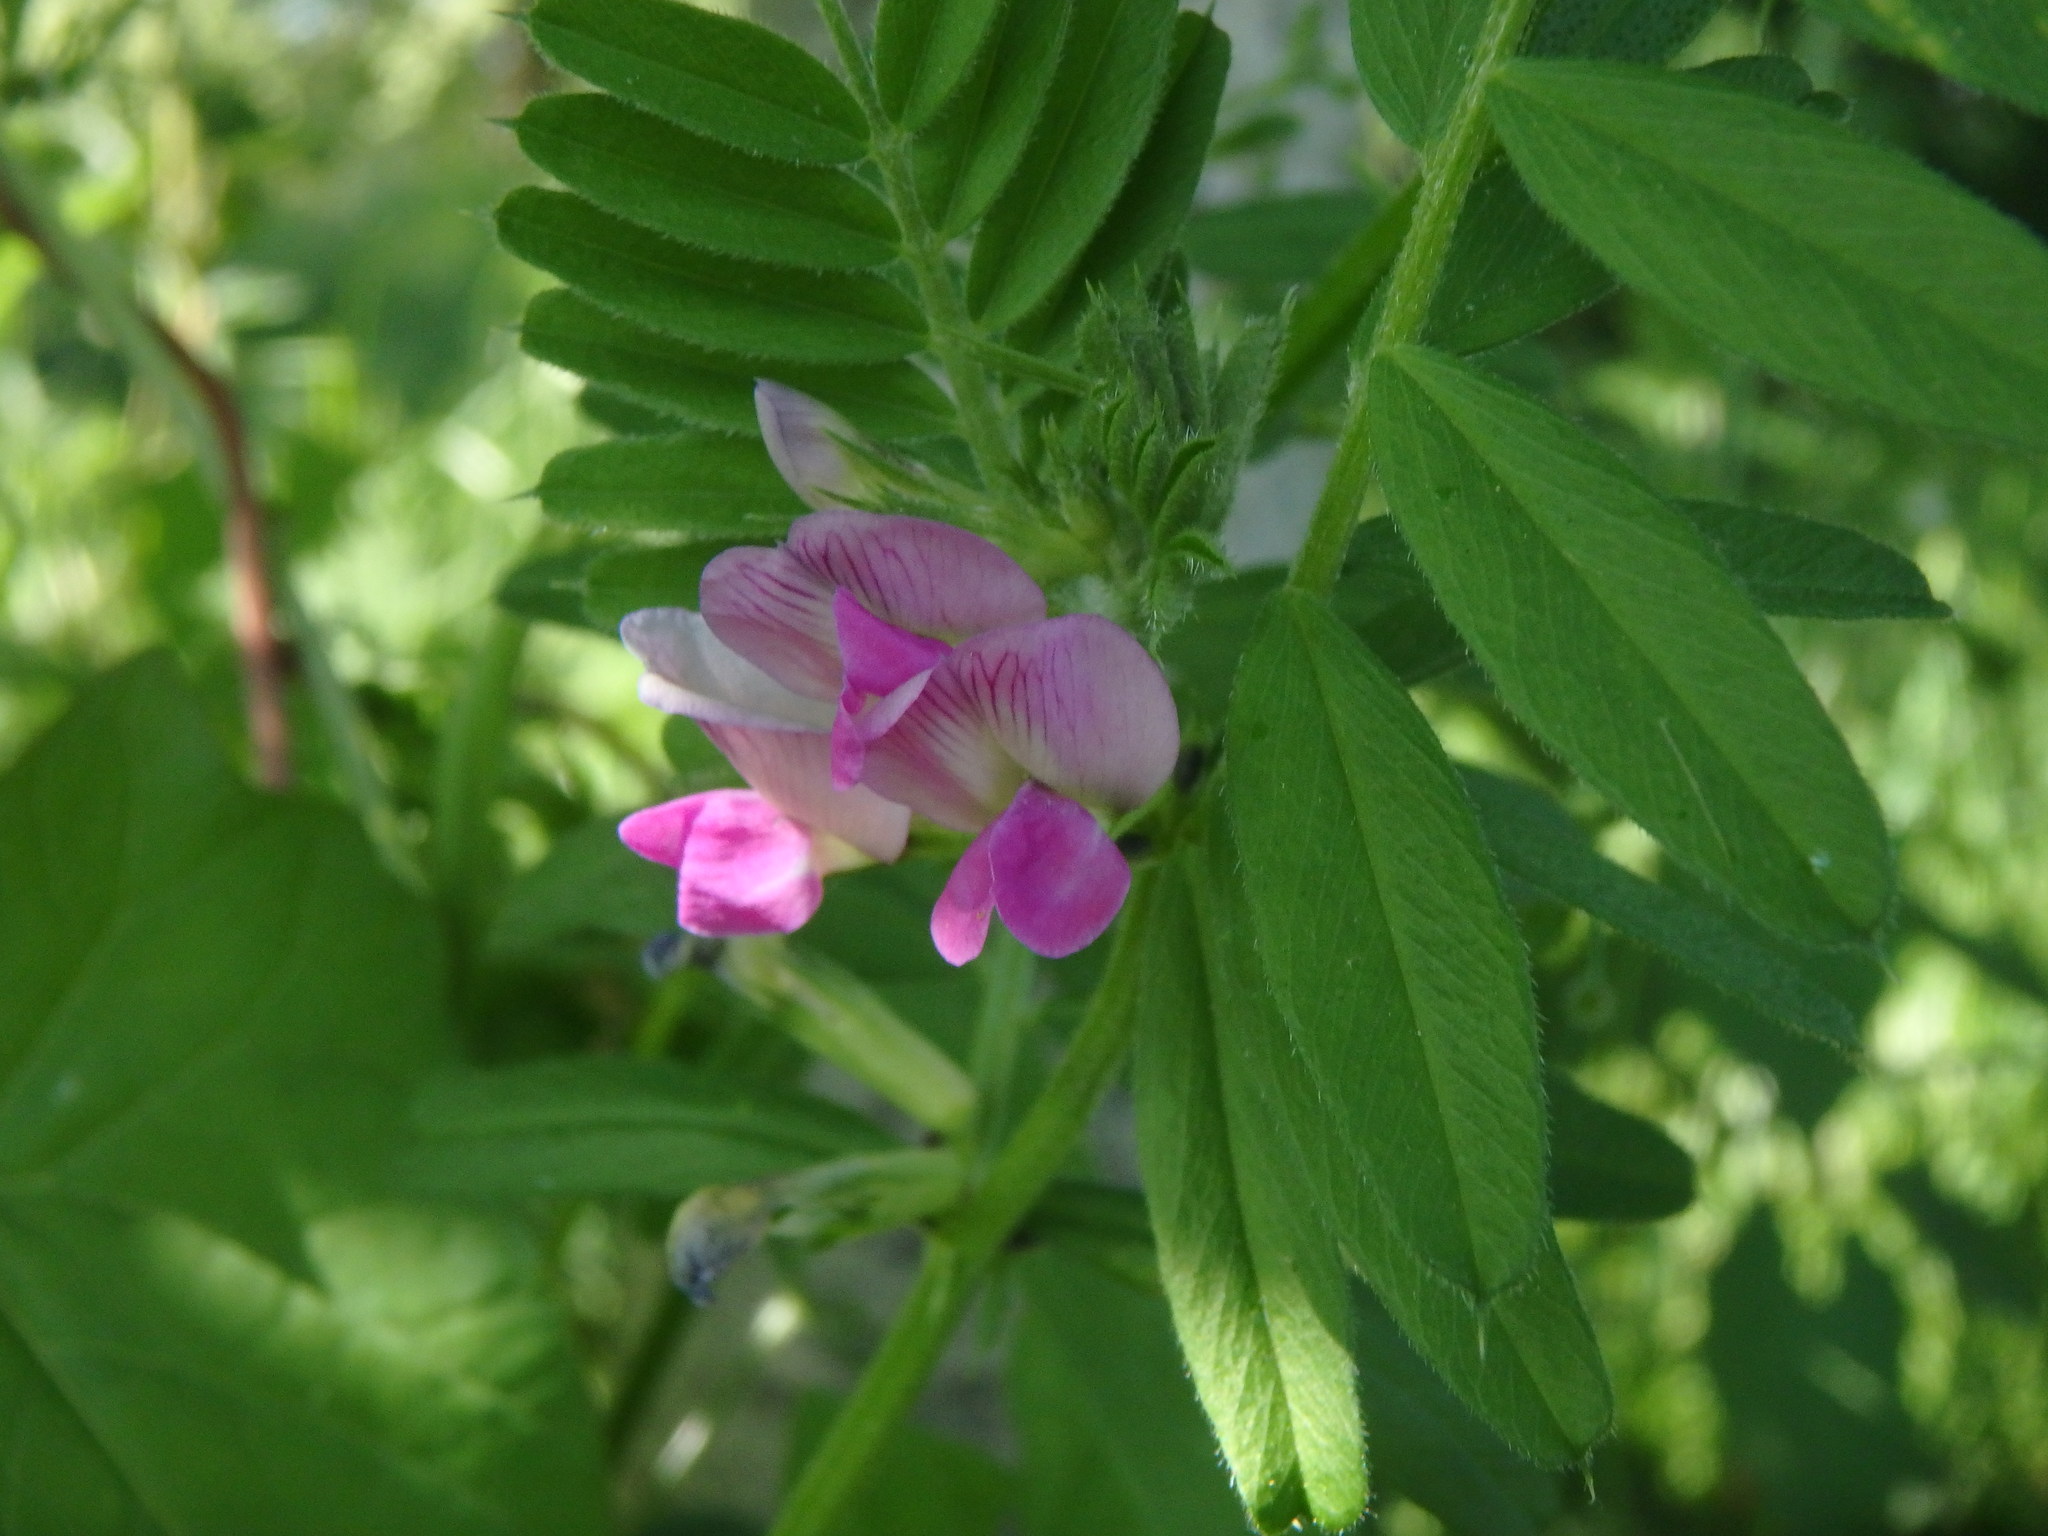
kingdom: Plantae
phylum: Tracheophyta
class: Magnoliopsida
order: Fabales
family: Fabaceae
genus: Vicia
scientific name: Vicia sativa
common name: Garden vetch
